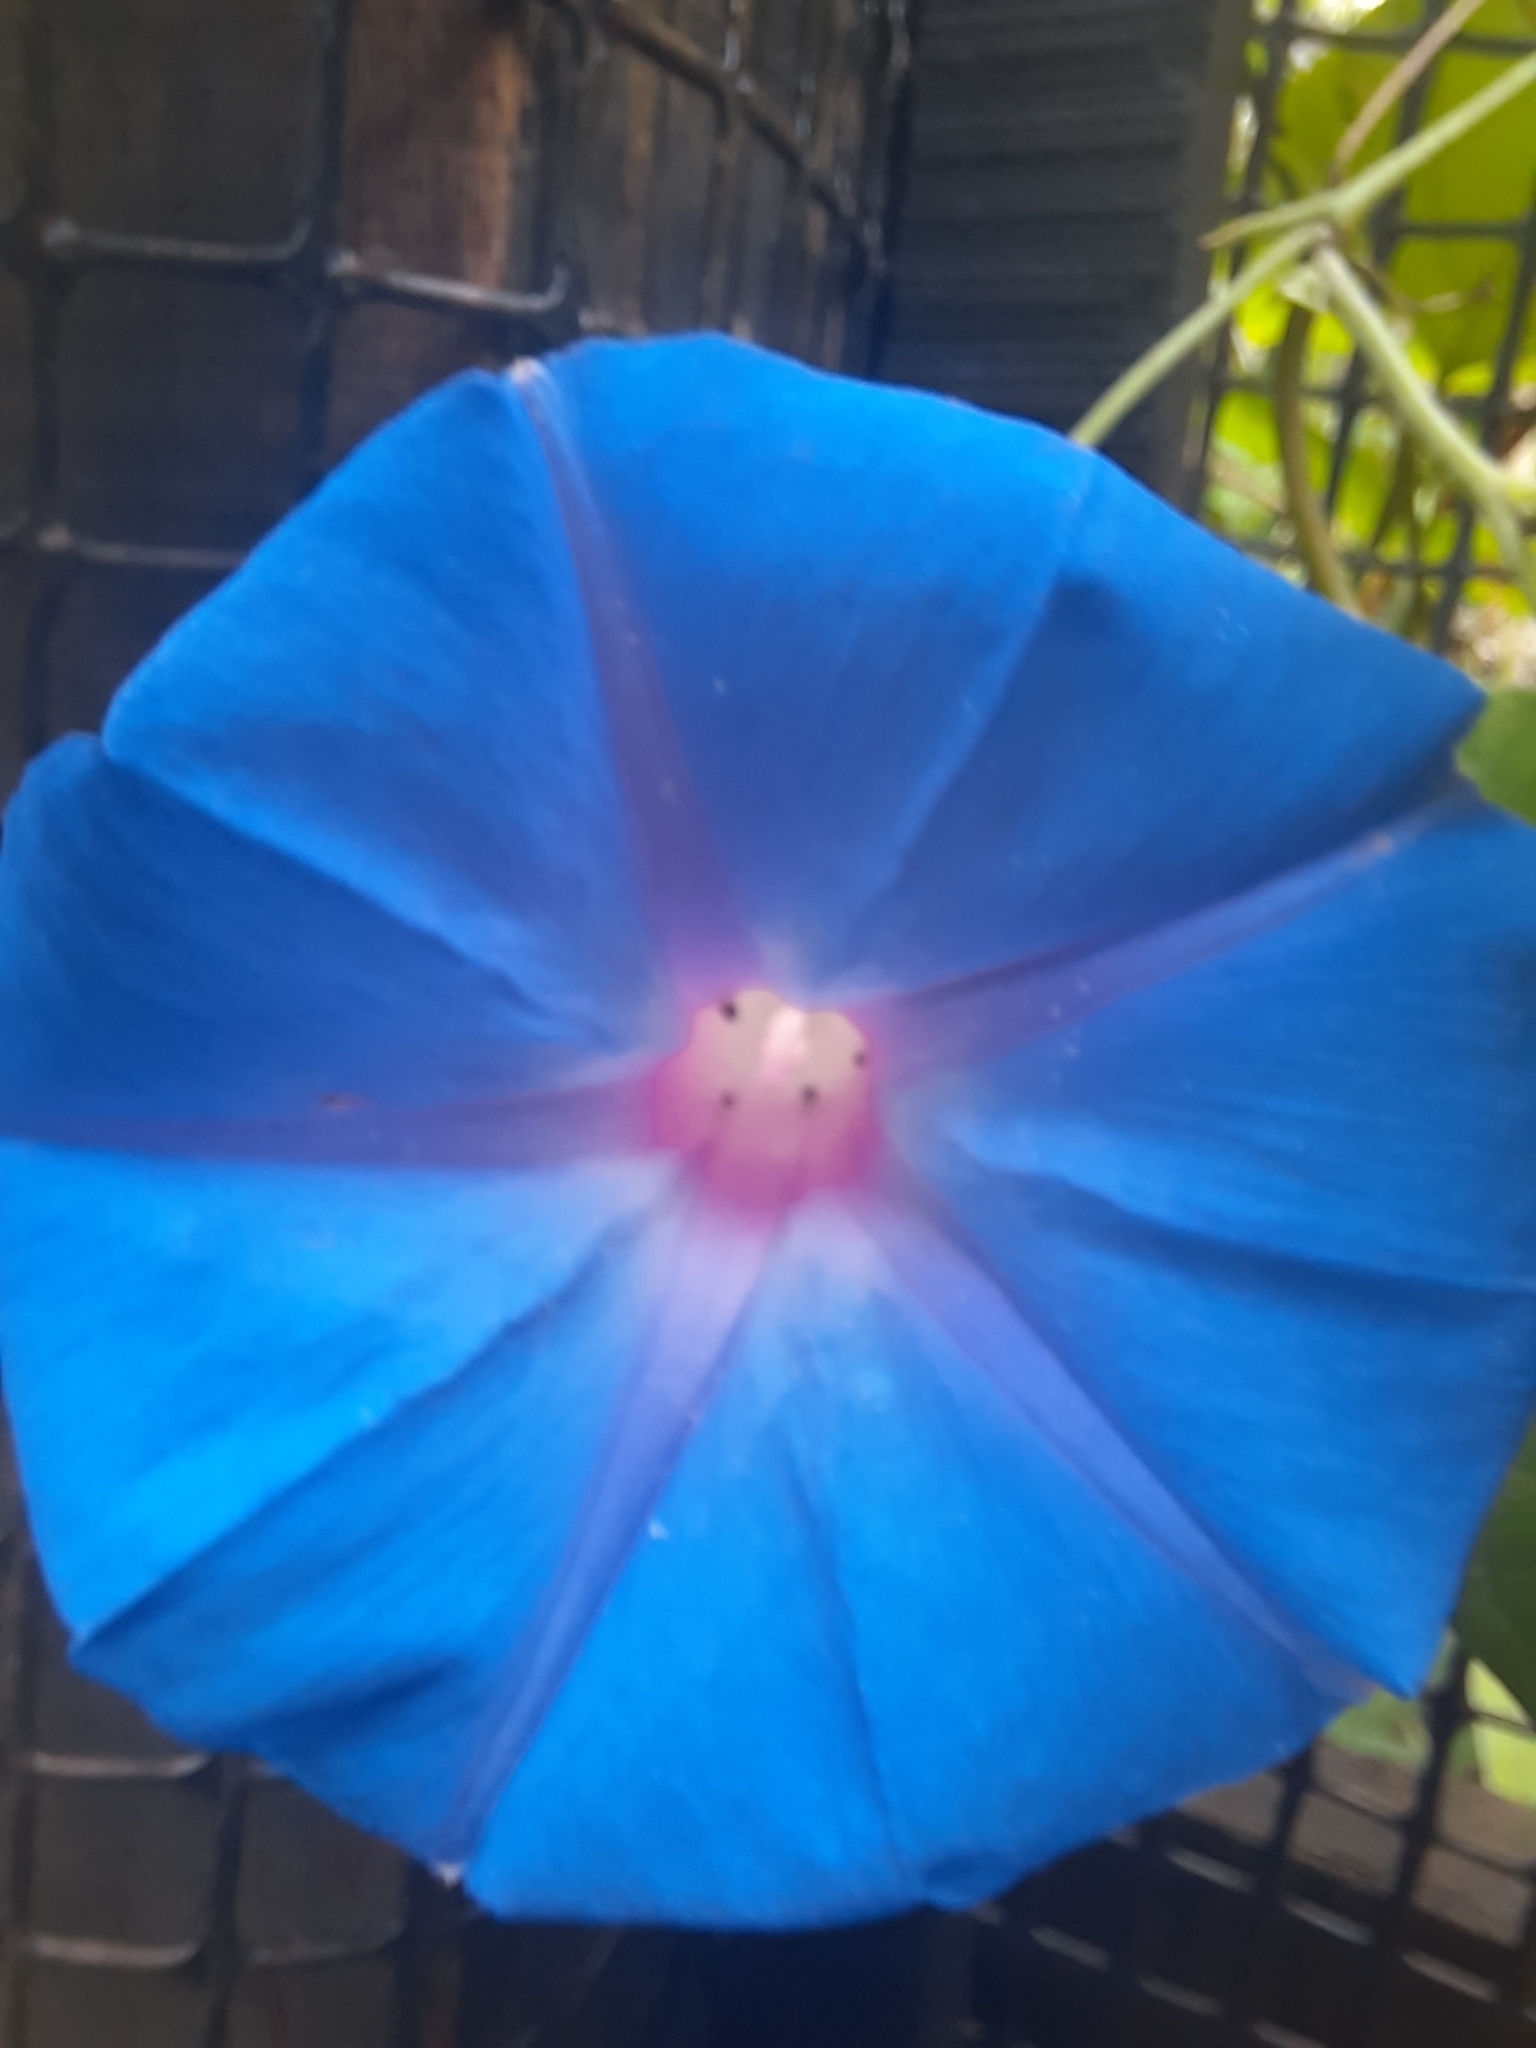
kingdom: Plantae
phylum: Tracheophyta
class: Magnoliopsida
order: Solanales
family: Convolvulaceae
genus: Ipomoea
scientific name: Ipomoea indica
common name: Blue dawnflower
